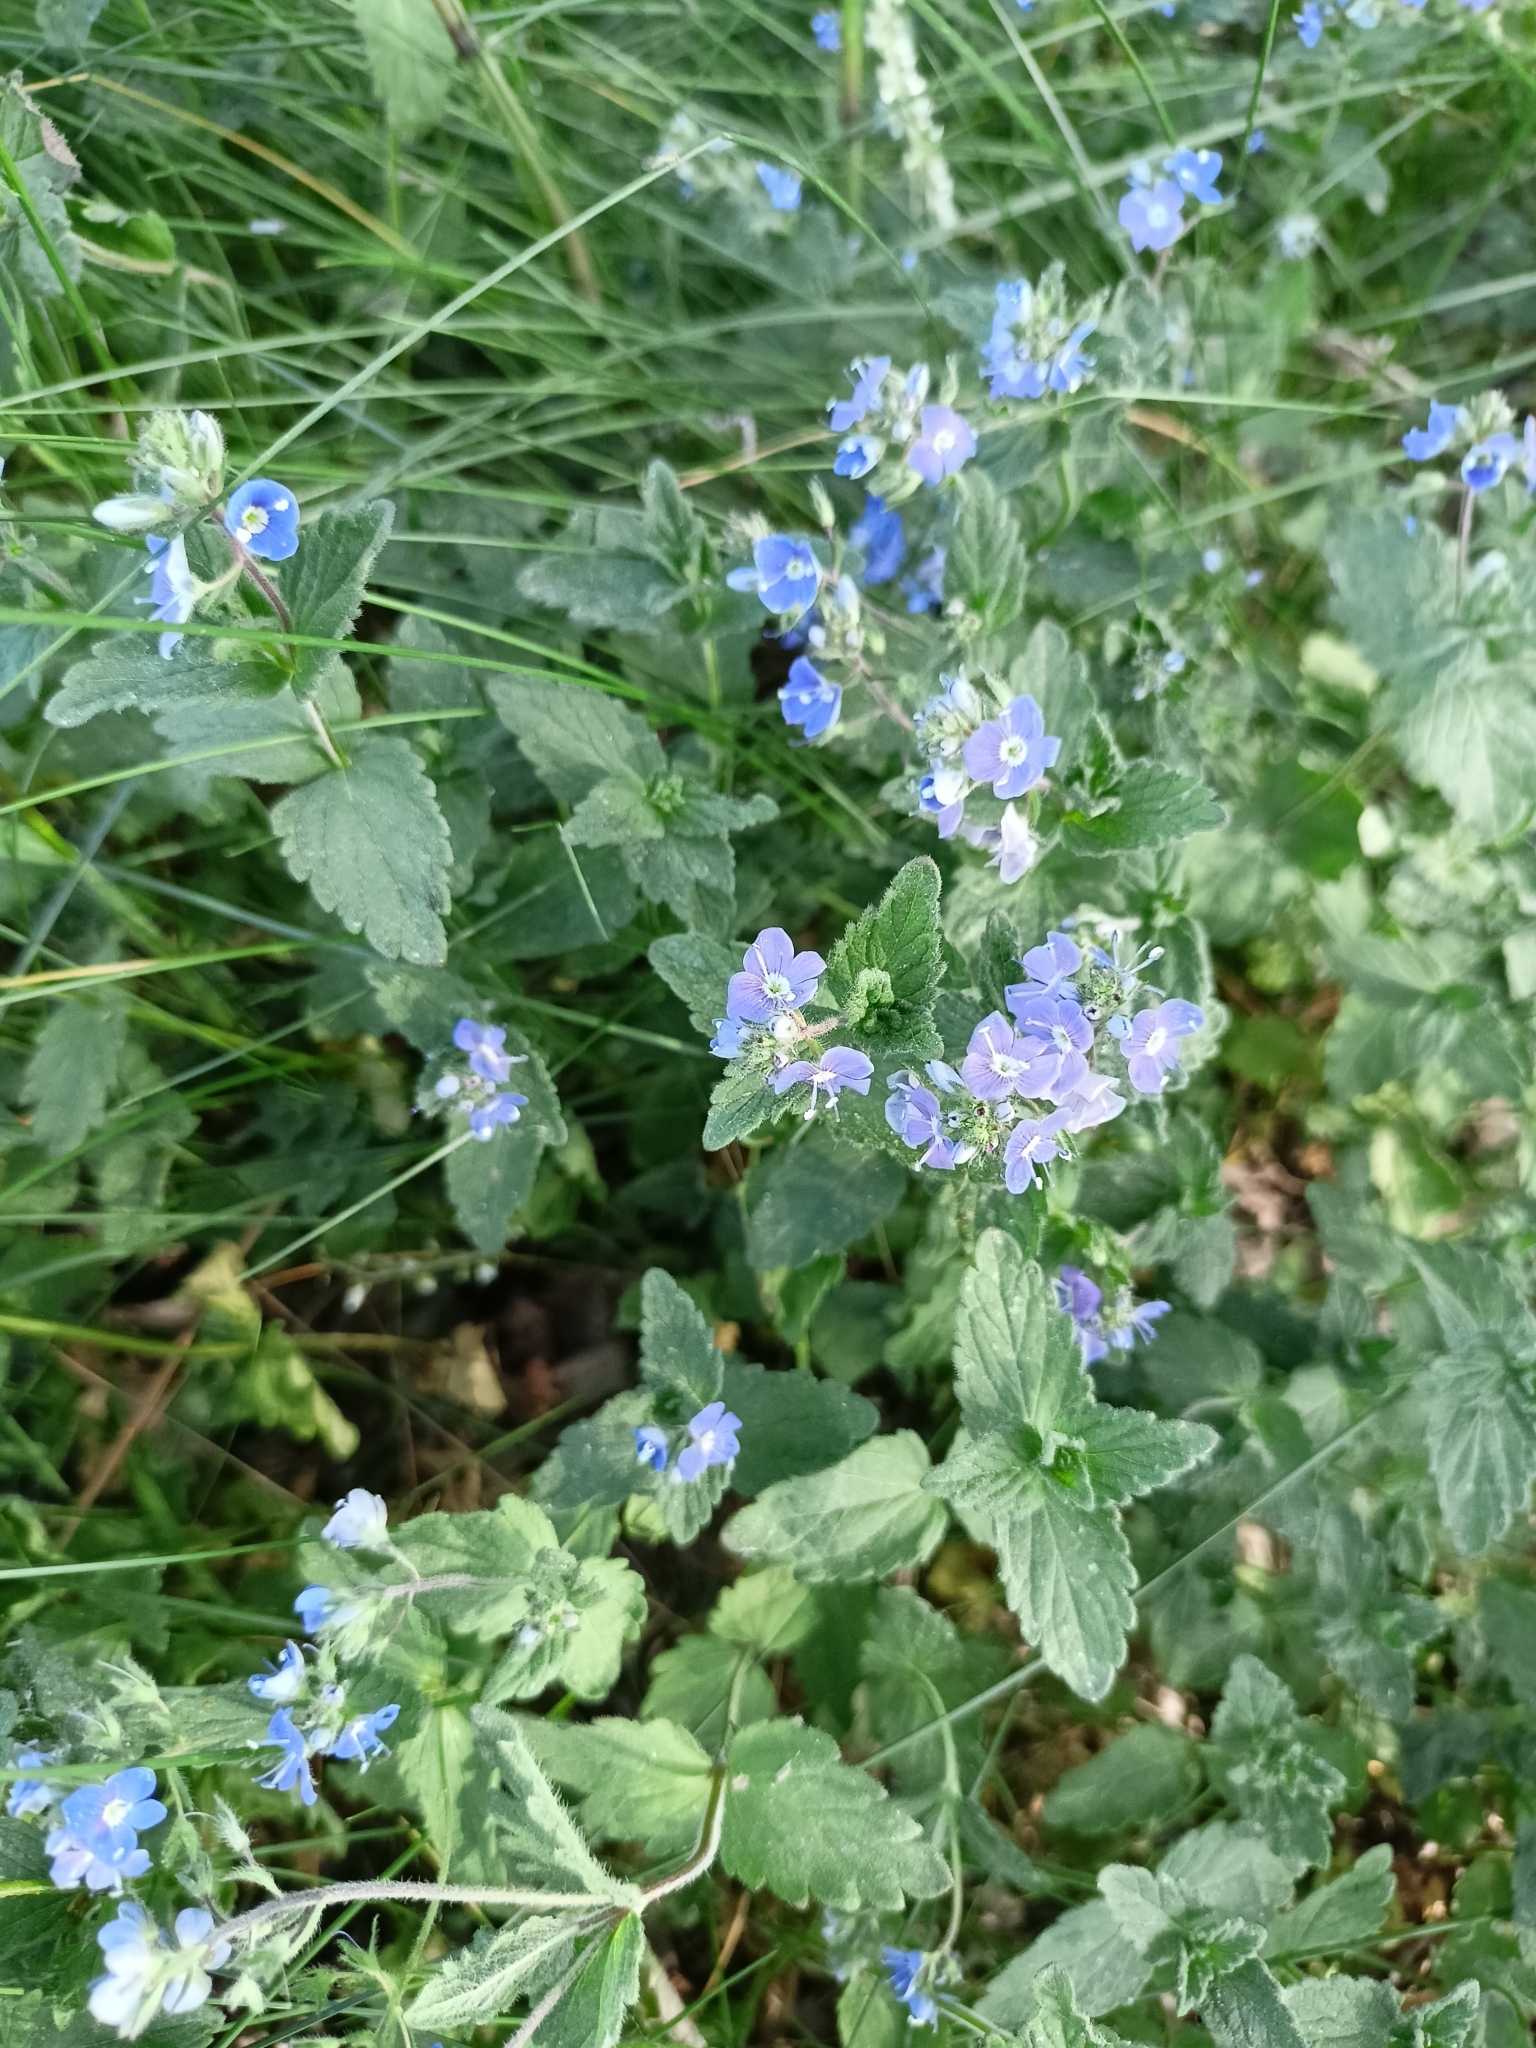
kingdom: Plantae
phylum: Tracheophyta
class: Magnoliopsida
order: Lamiales
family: Plantaginaceae
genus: Veronica
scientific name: Veronica chamaedrys
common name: Germander speedwell
